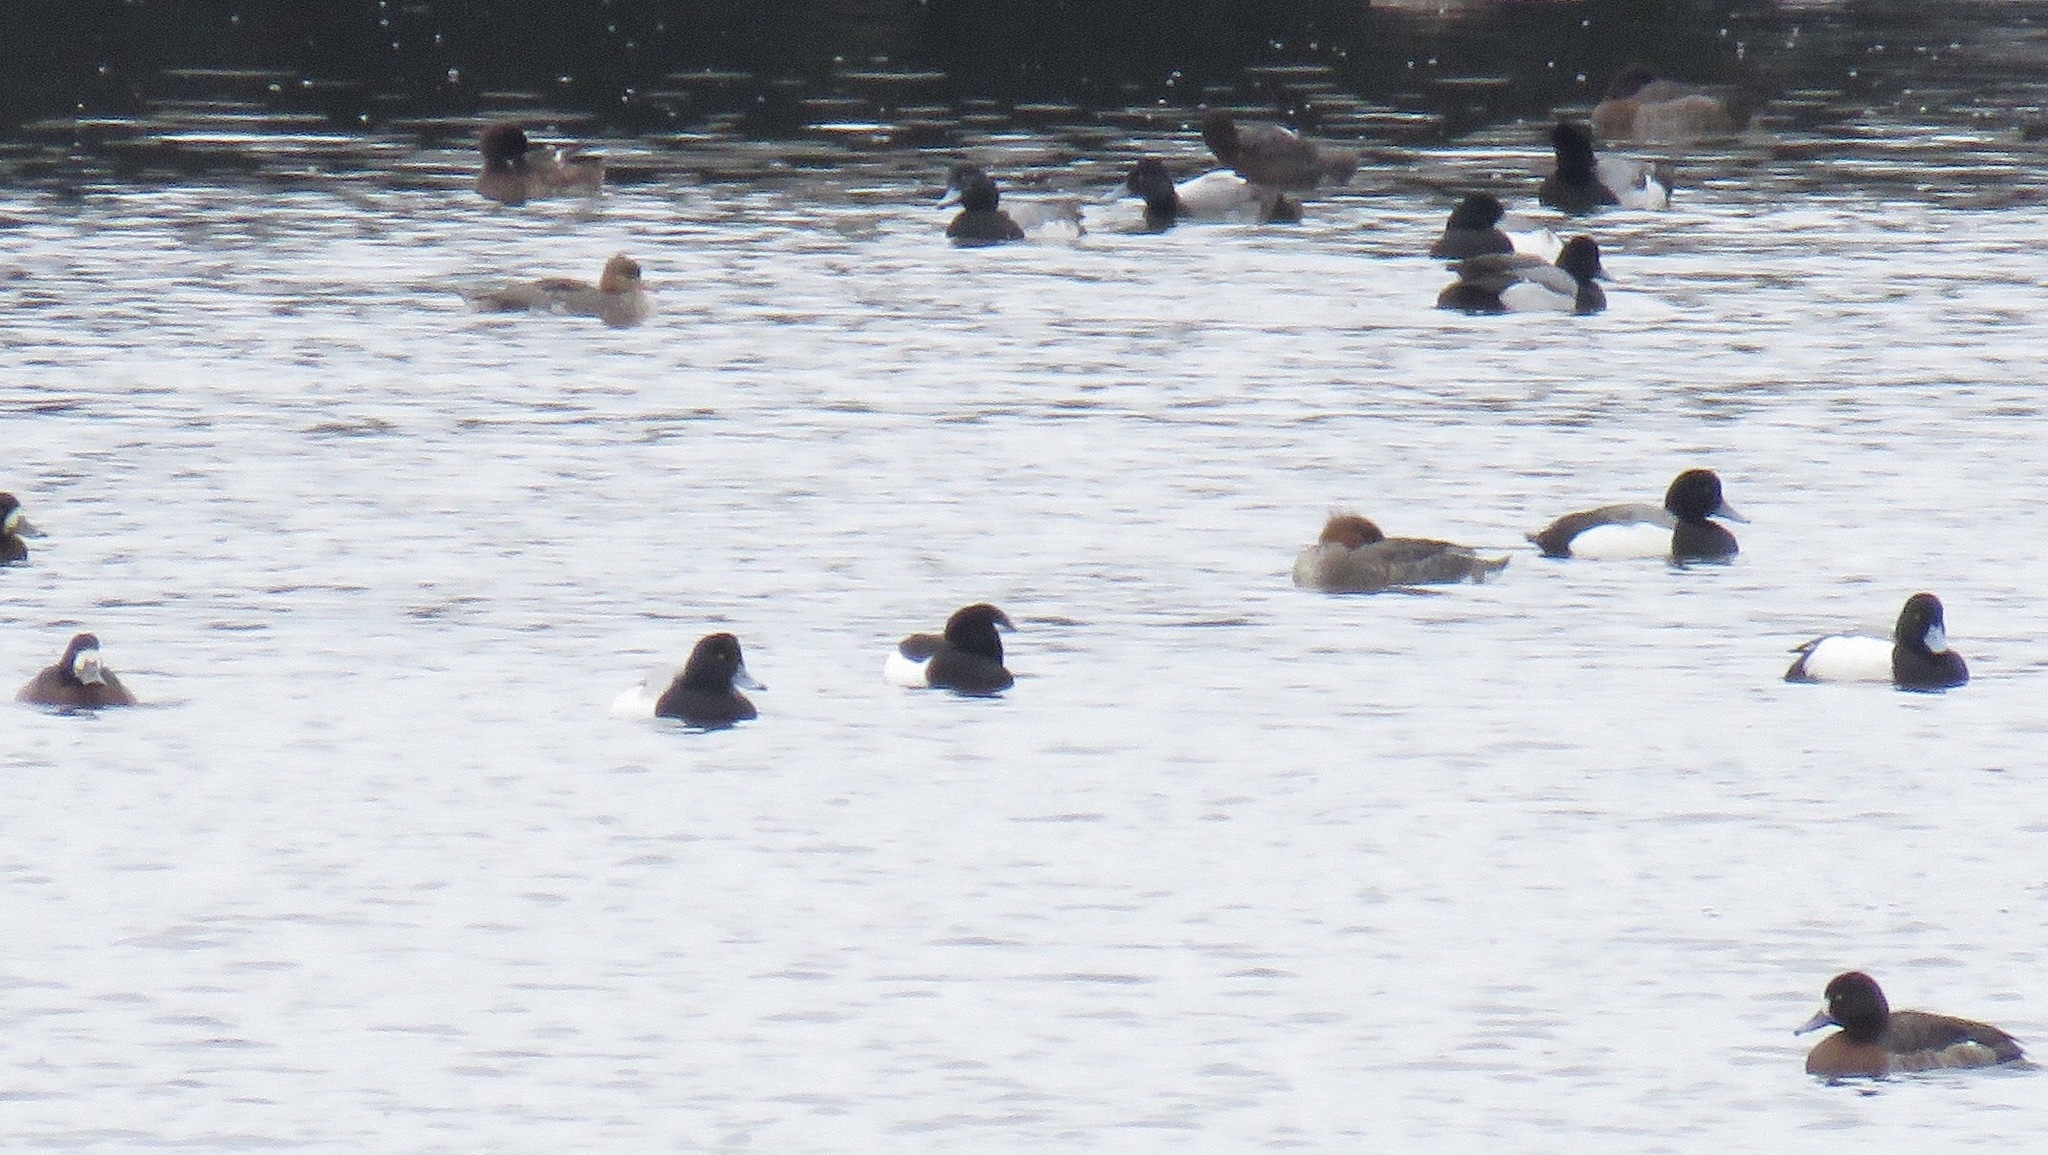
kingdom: Animalia
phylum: Chordata
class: Aves
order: Anseriformes
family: Anatidae
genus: Aythya
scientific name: Aythya fuligula
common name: Tufted duck
